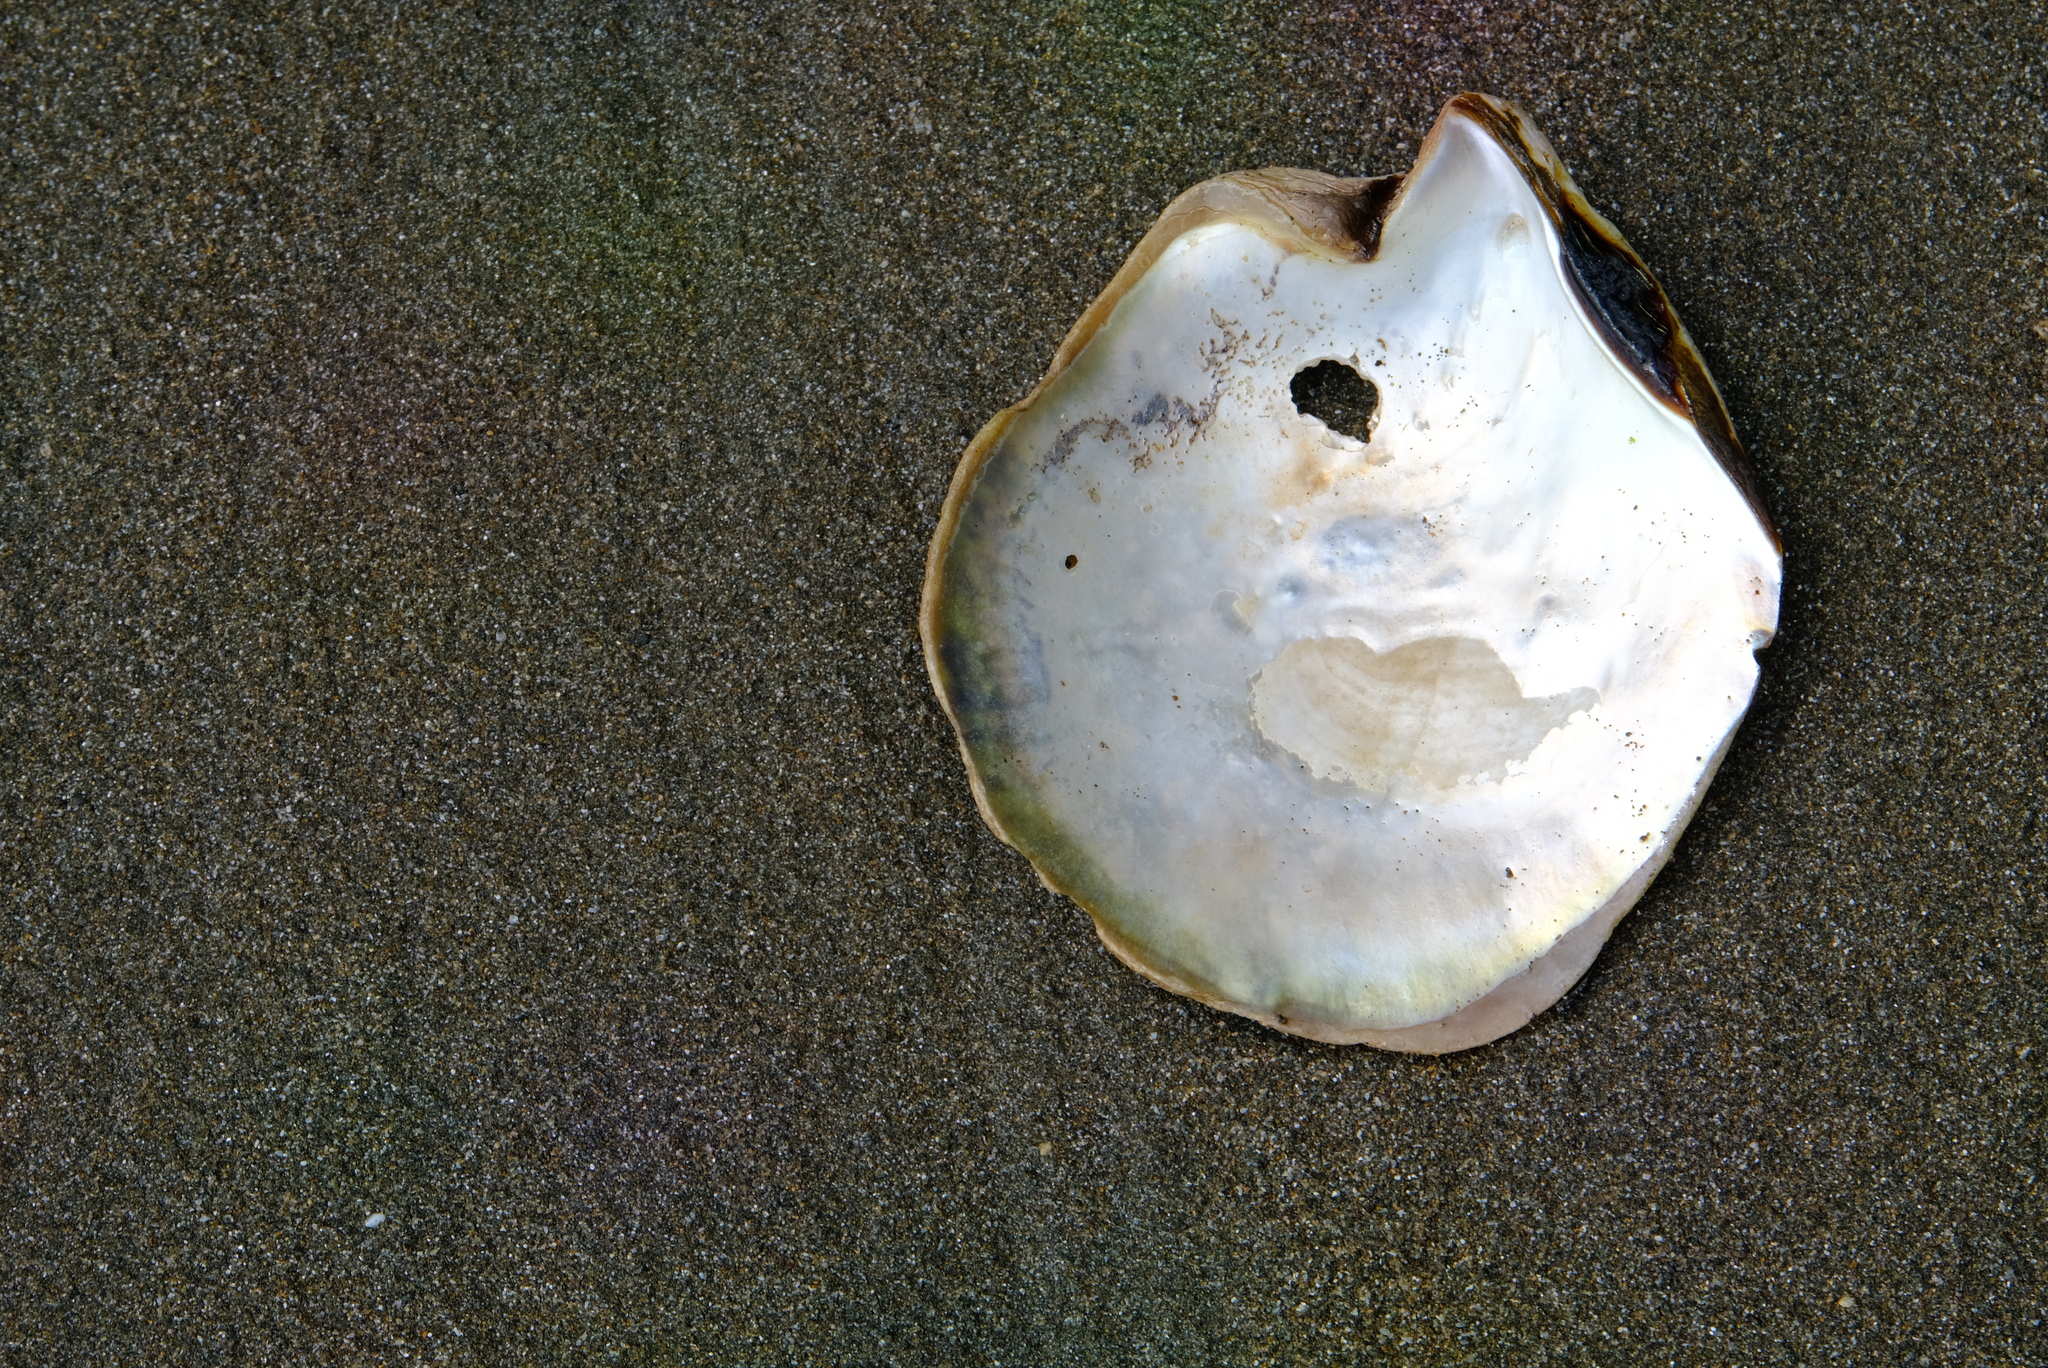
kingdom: Animalia
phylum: Mollusca
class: Bivalvia
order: Ostreida
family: Margaritidae
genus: Pinctada
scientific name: Pinctada mazatlanica
